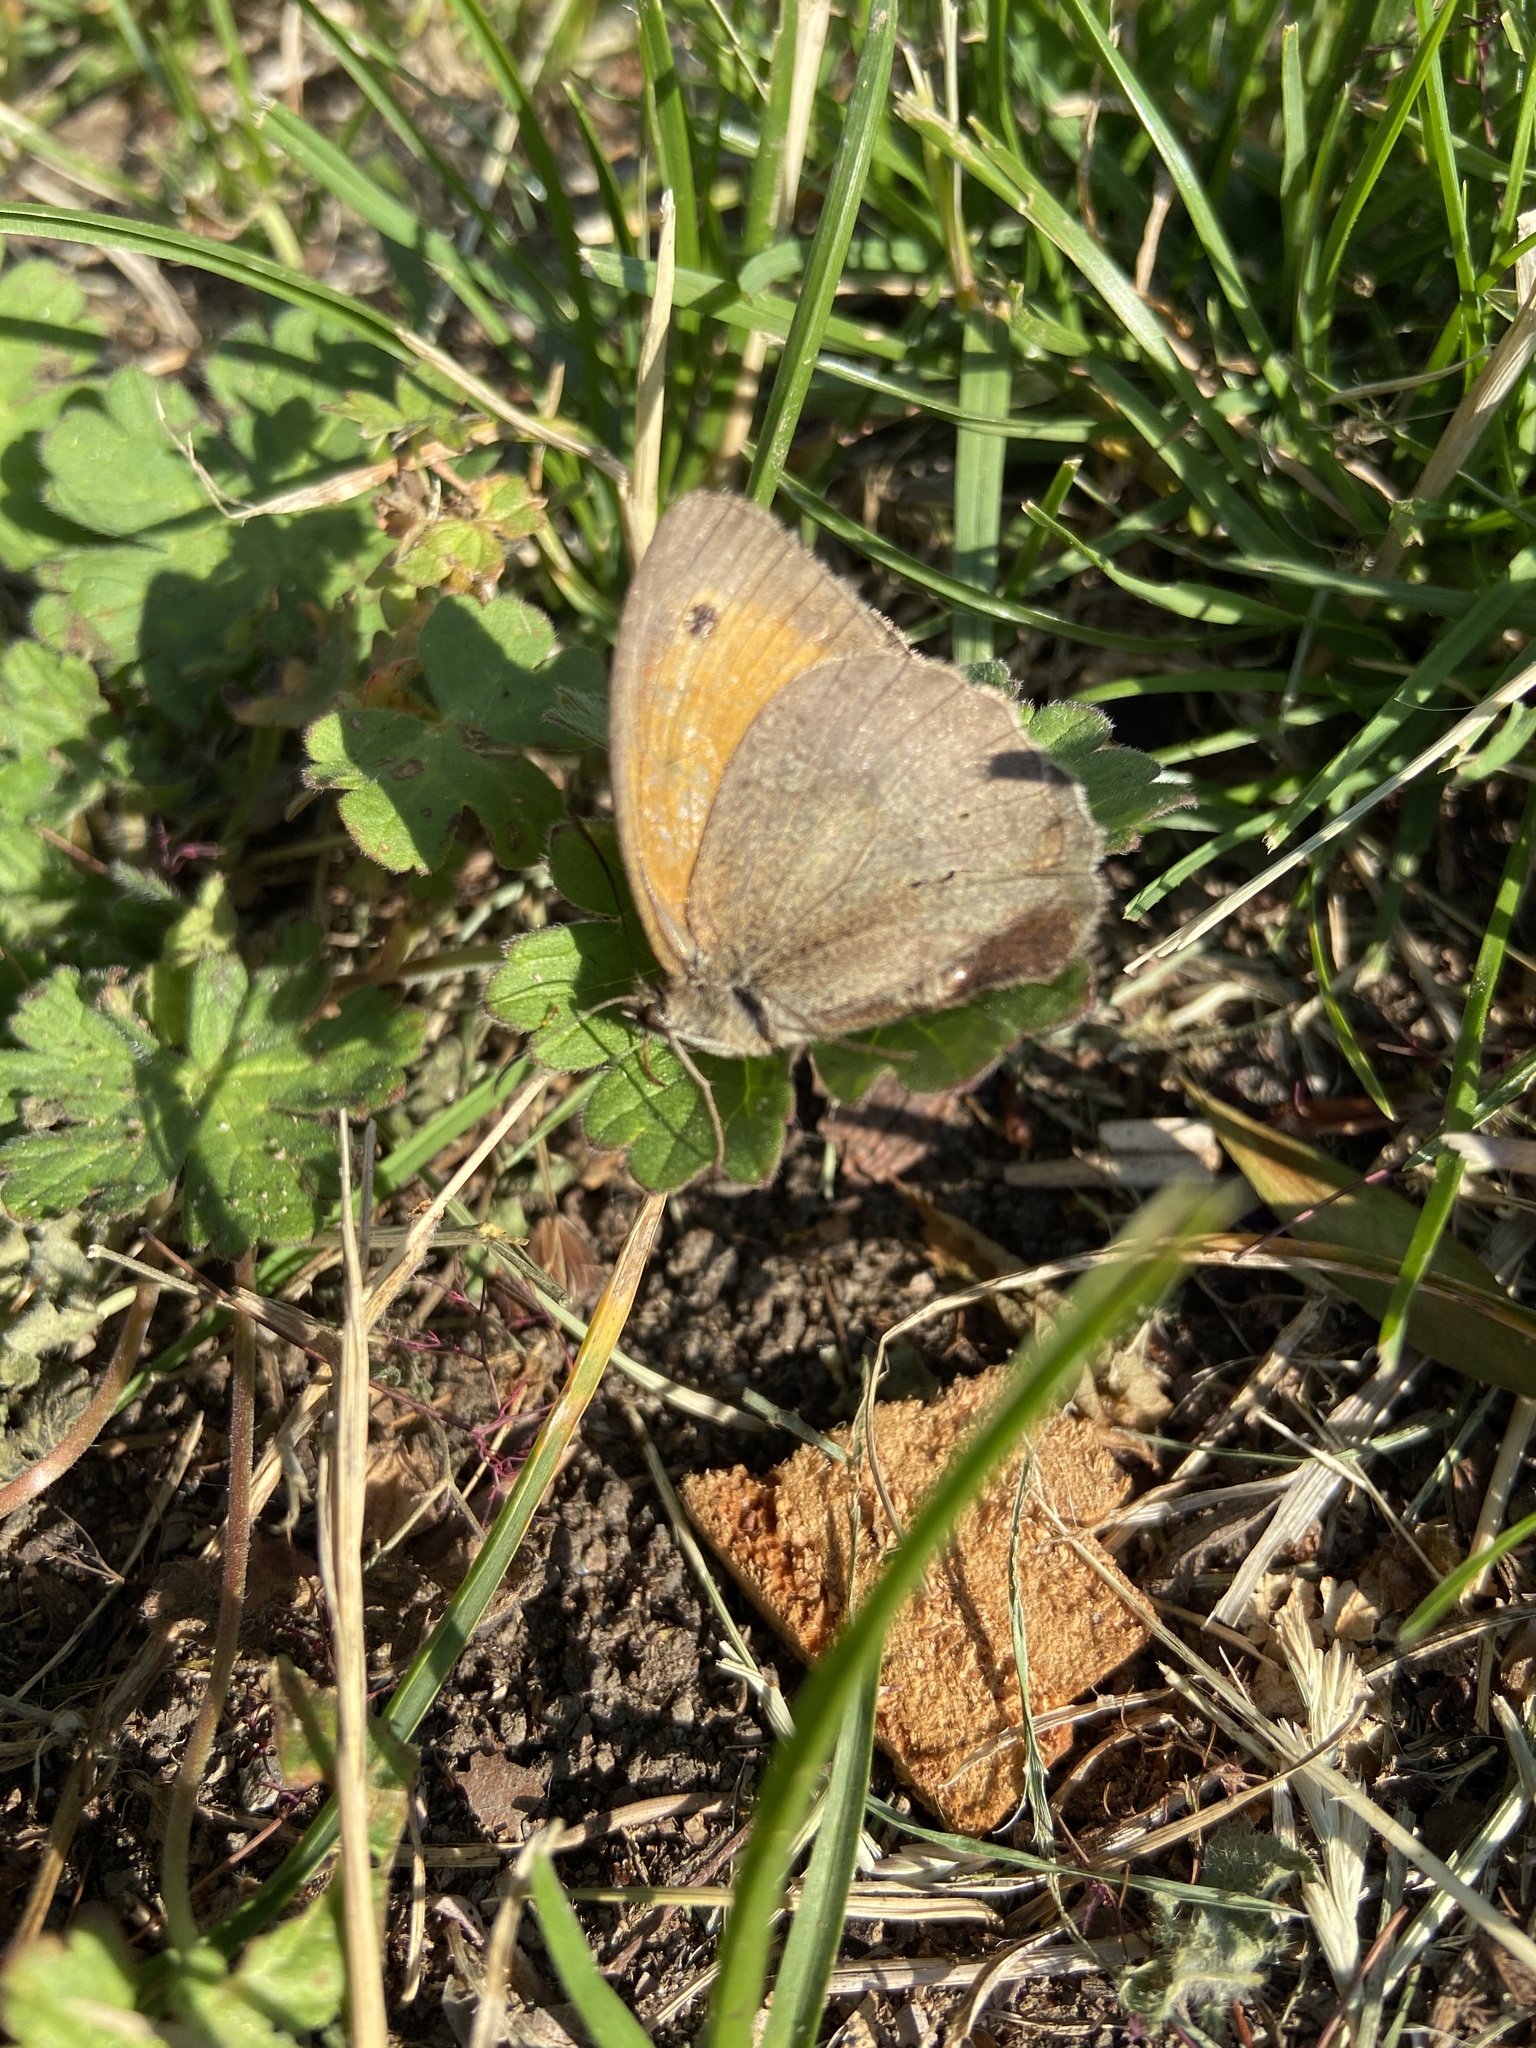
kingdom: Animalia
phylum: Arthropoda
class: Insecta
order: Lepidoptera
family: Nymphalidae
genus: Maniola
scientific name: Maniola jurtina
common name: Meadow brown
